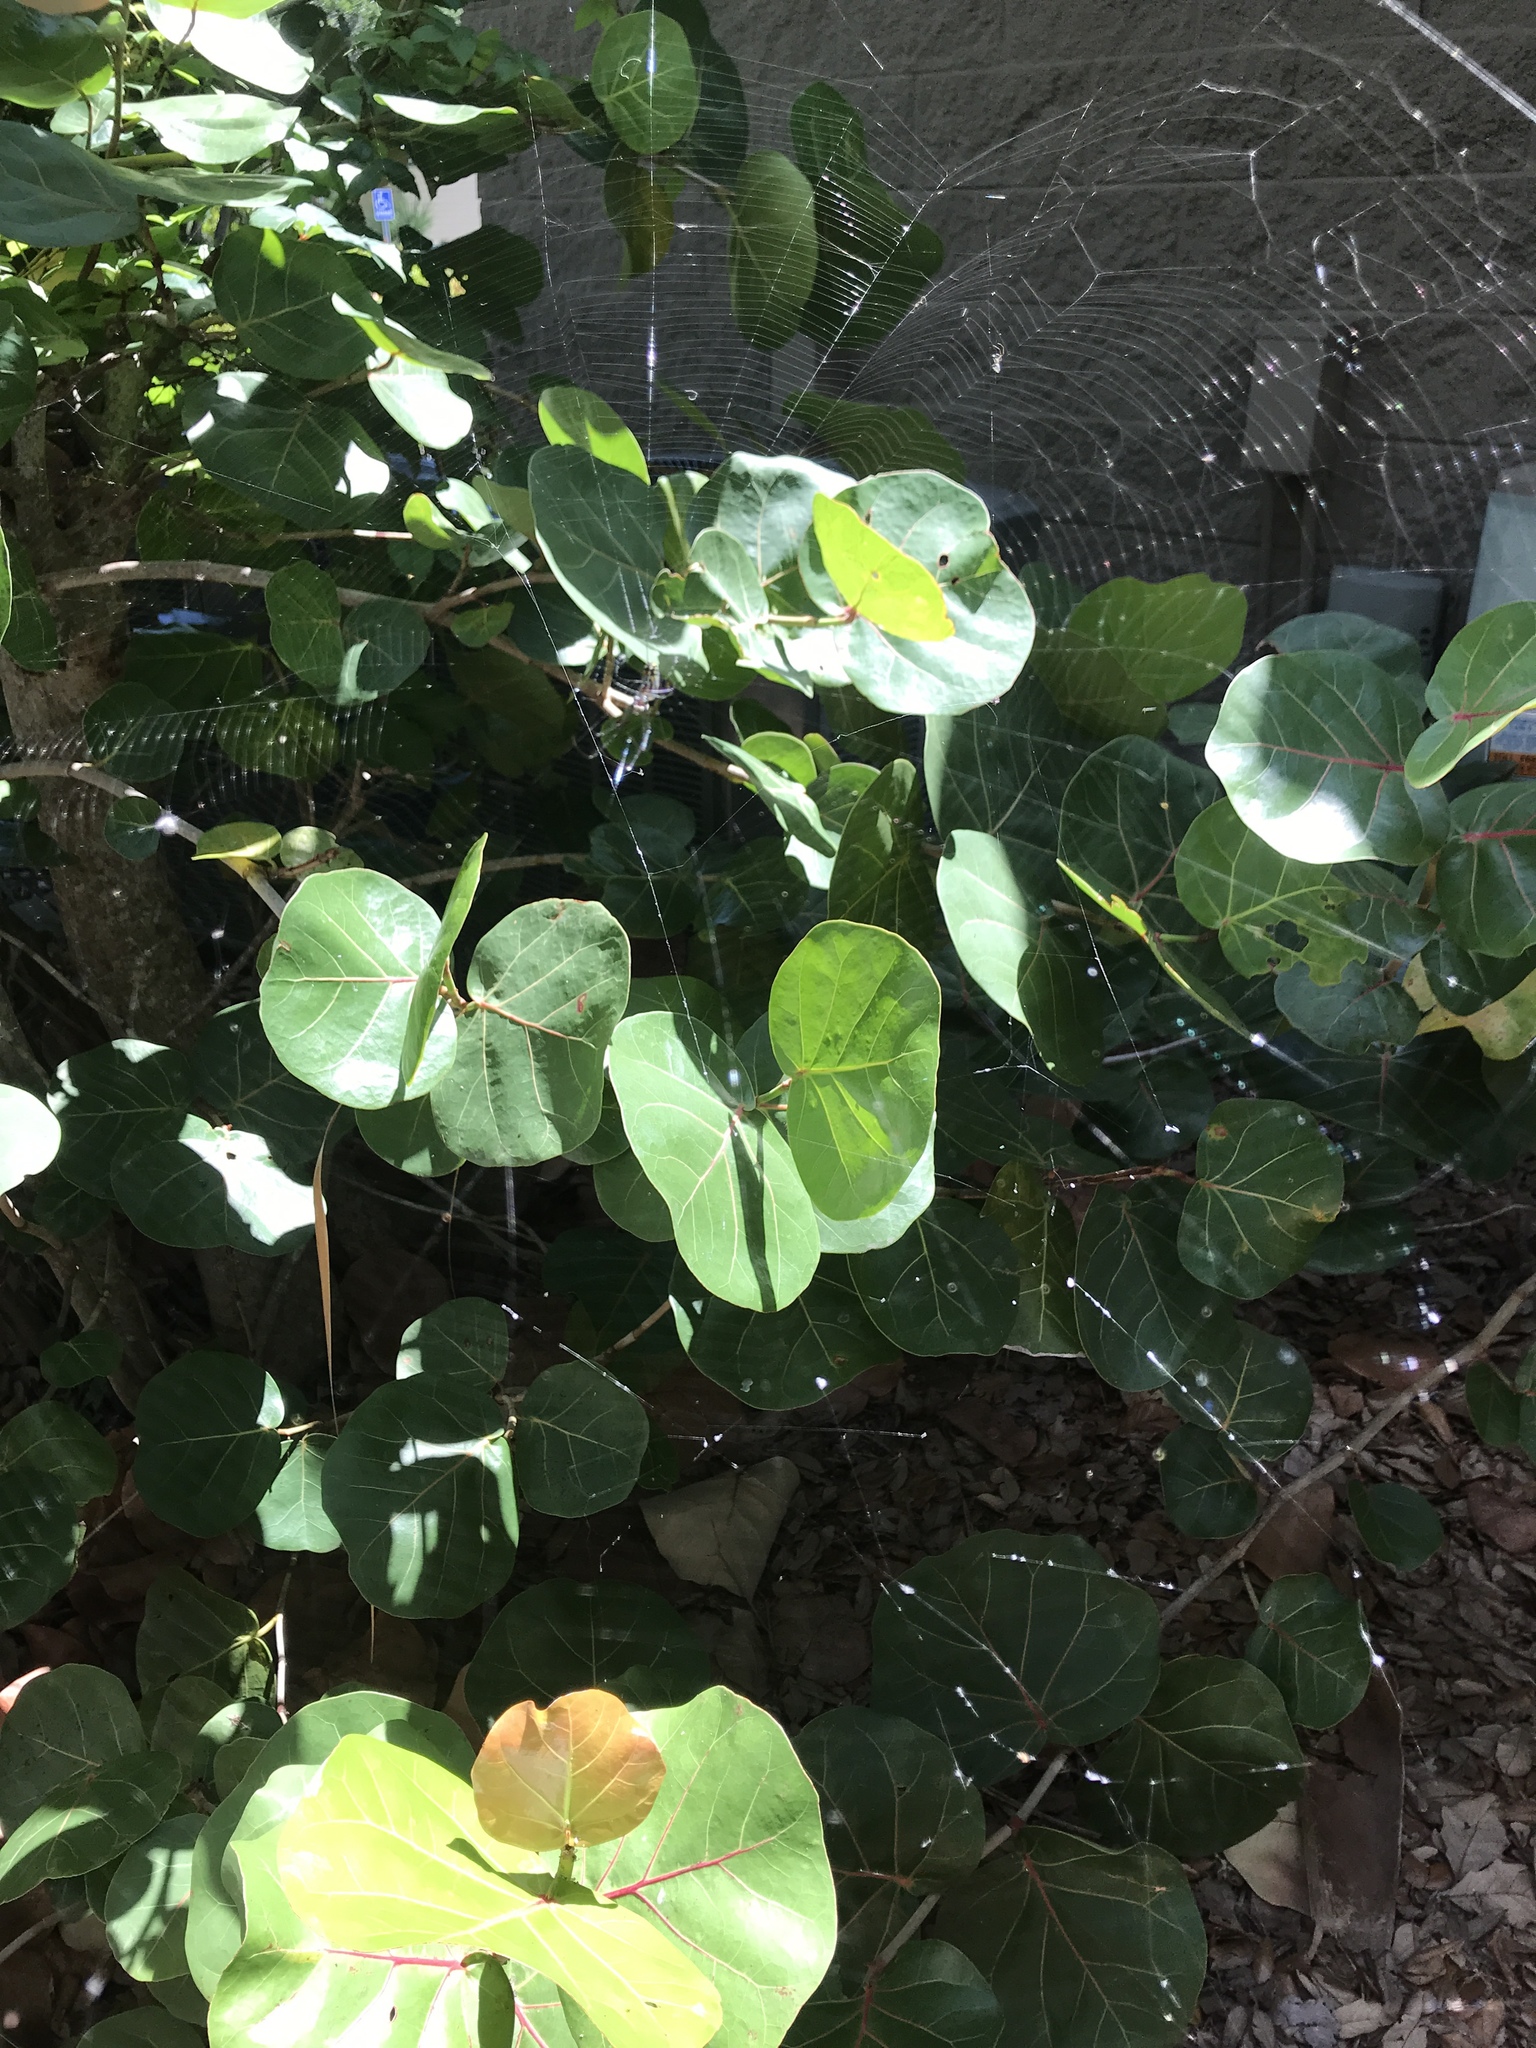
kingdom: Animalia
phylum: Arthropoda
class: Arachnida
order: Araneae
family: Tetragnathidae
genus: Leucauge
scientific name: Leucauge argyra
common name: Longjawed orb weavers
